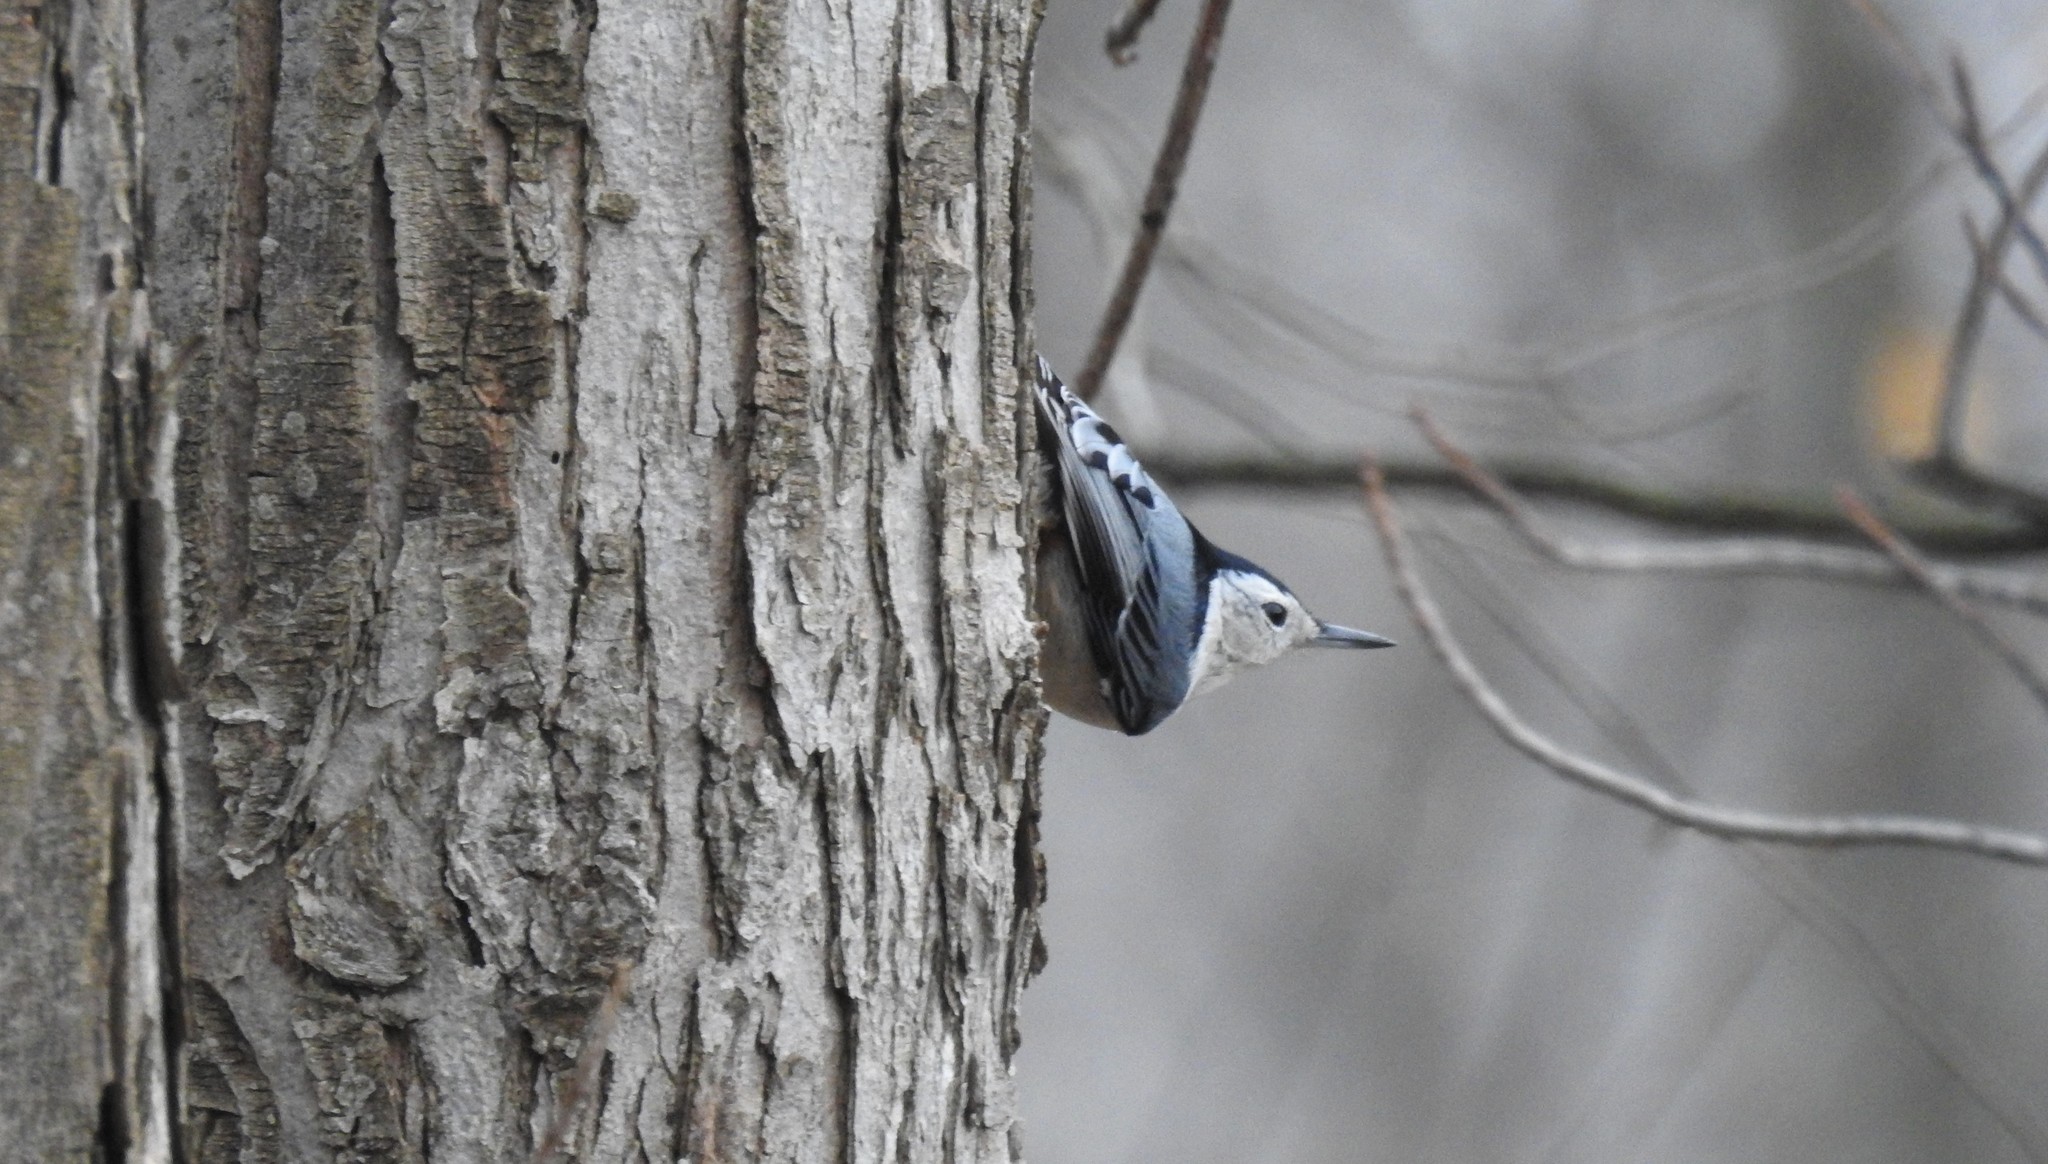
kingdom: Animalia
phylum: Chordata
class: Aves
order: Passeriformes
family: Sittidae
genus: Sitta
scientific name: Sitta carolinensis
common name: White-breasted nuthatch
